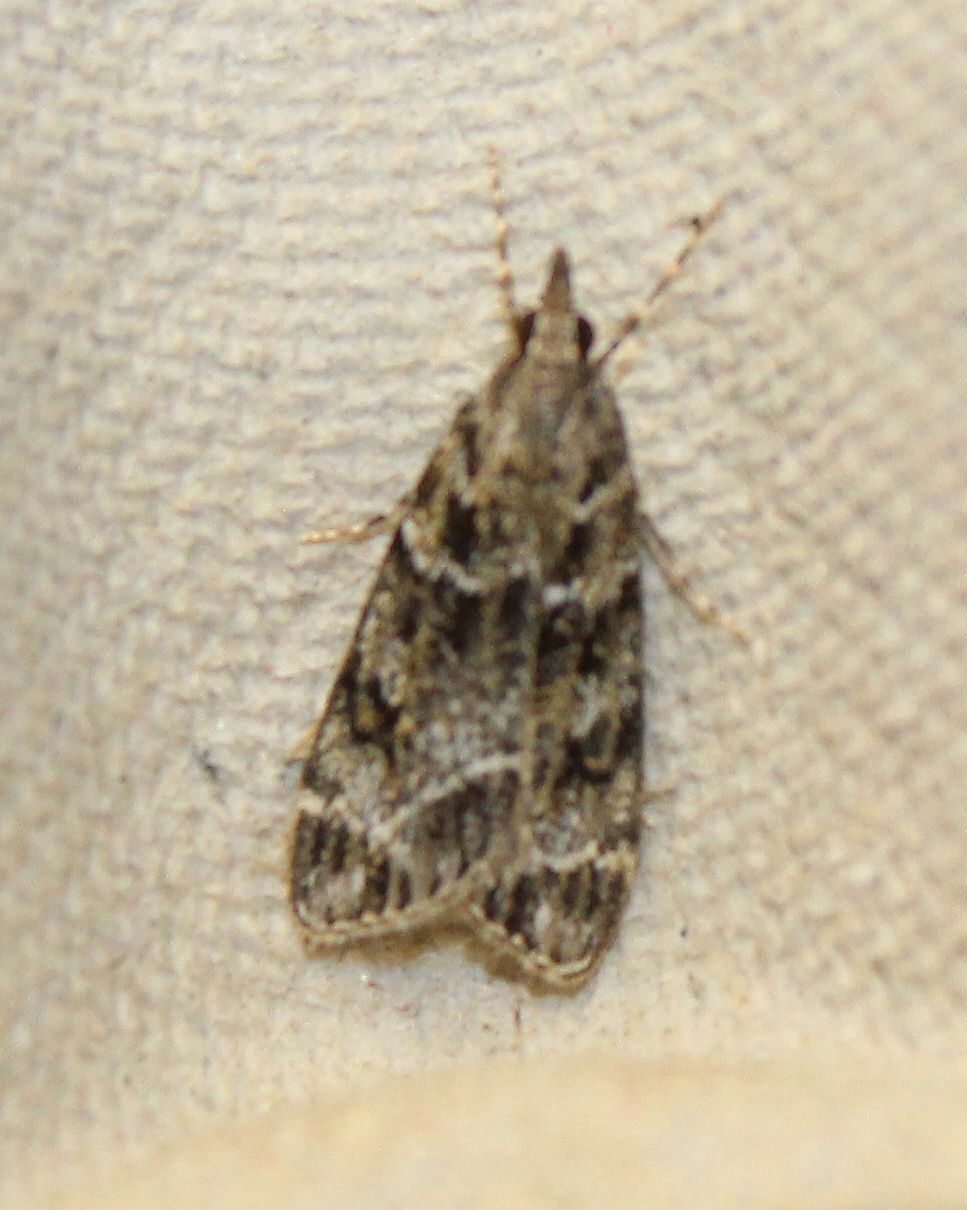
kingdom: Animalia
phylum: Arthropoda
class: Insecta
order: Lepidoptera
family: Crambidae
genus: Eudonia
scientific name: Eudonia mercurella
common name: Small grey
